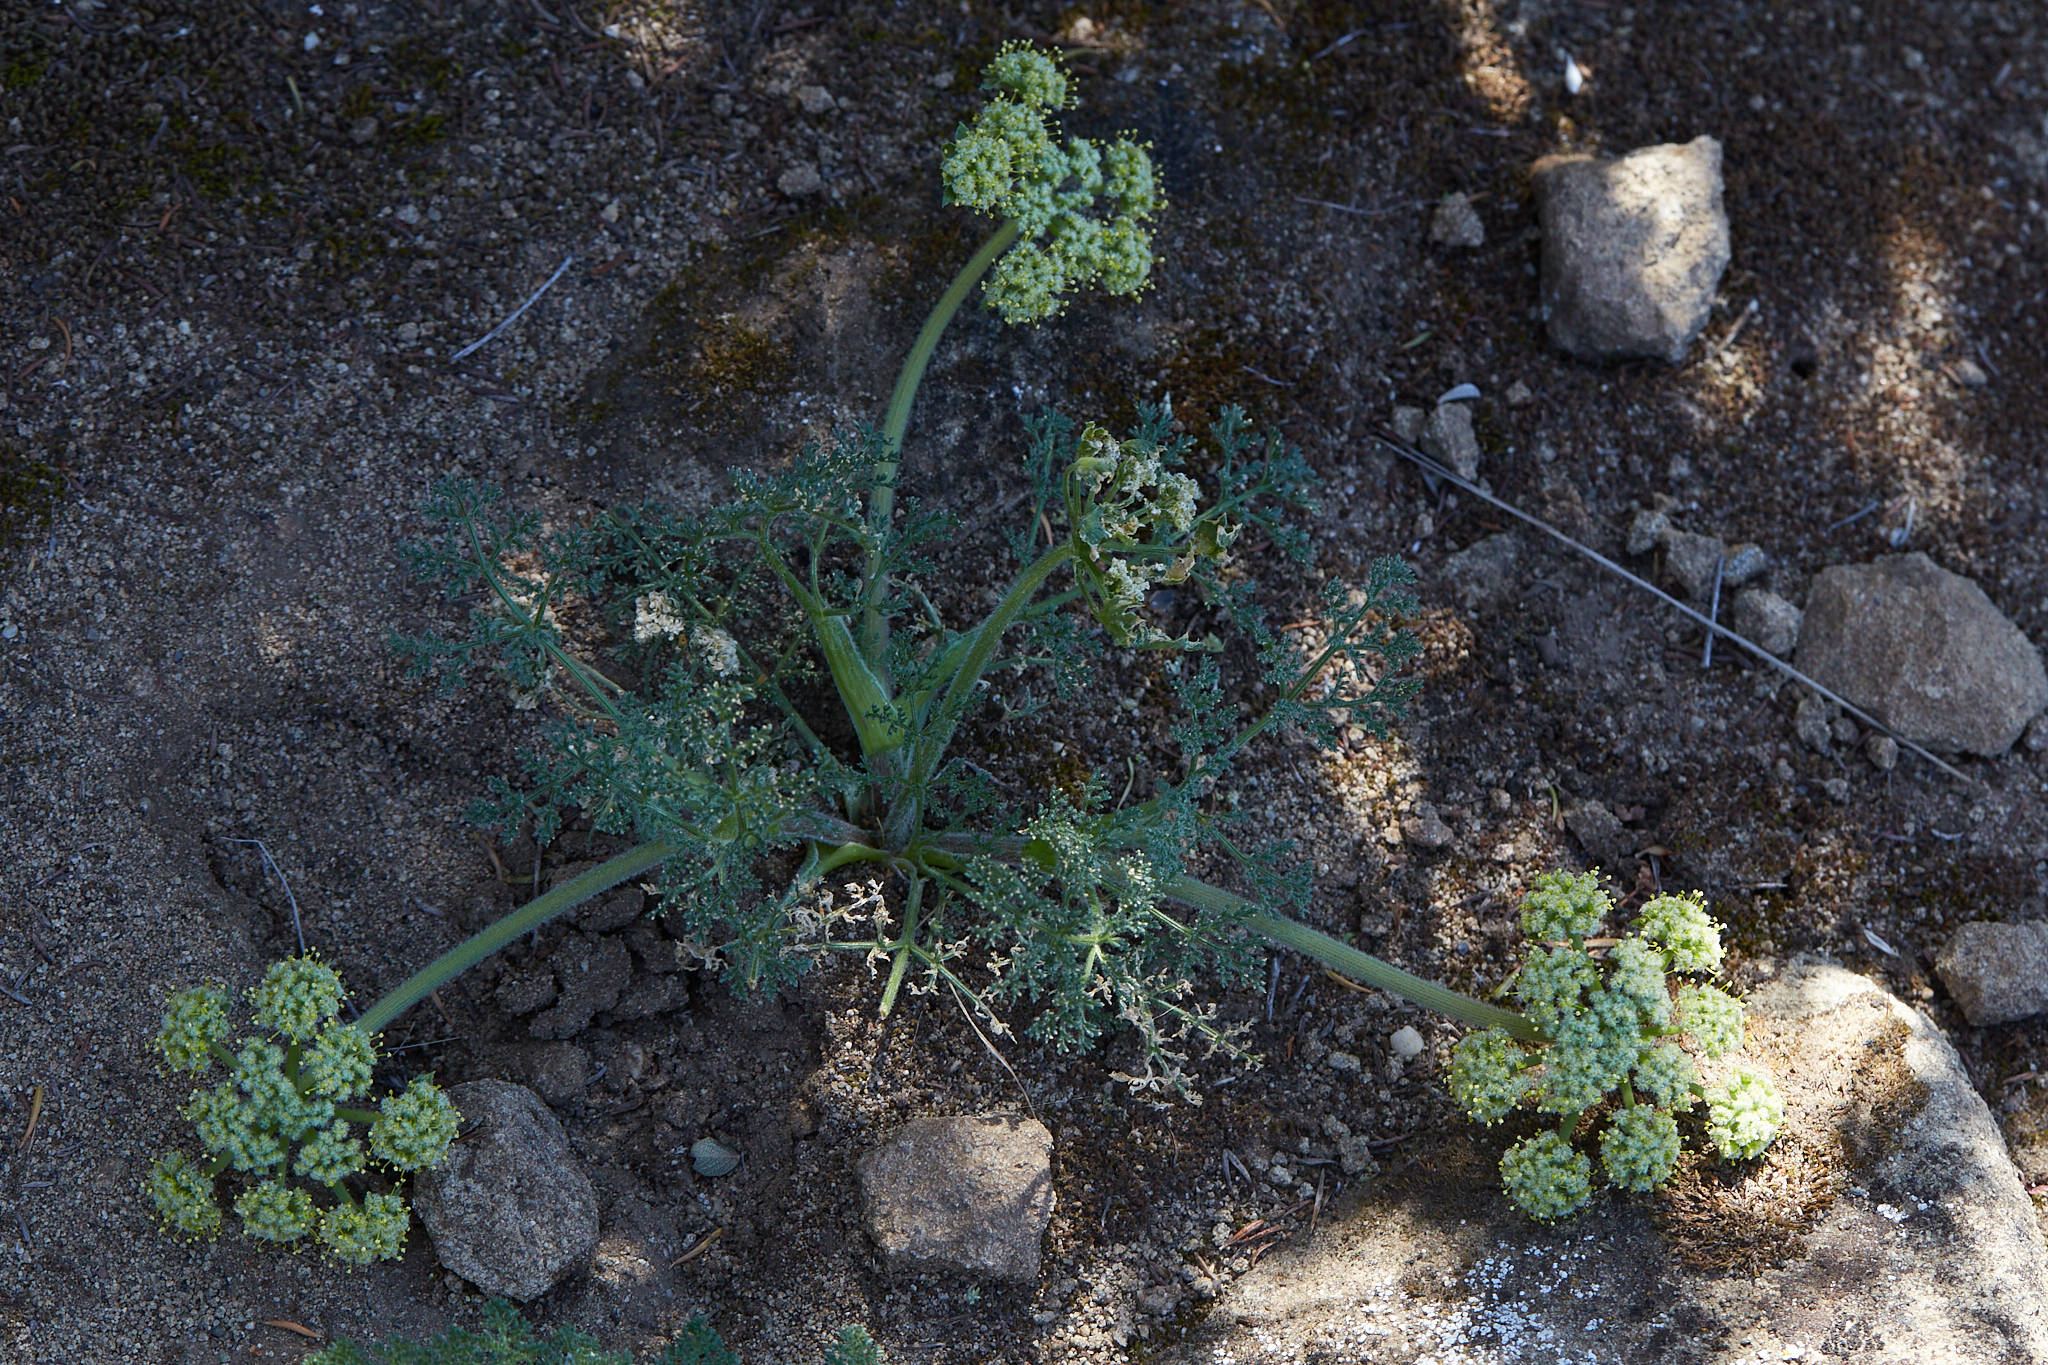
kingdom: Plantae
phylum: Tracheophyta
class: Magnoliopsida
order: Apiales
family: Apiaceae
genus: Lomatium
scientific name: Lomatium dasycarpum
